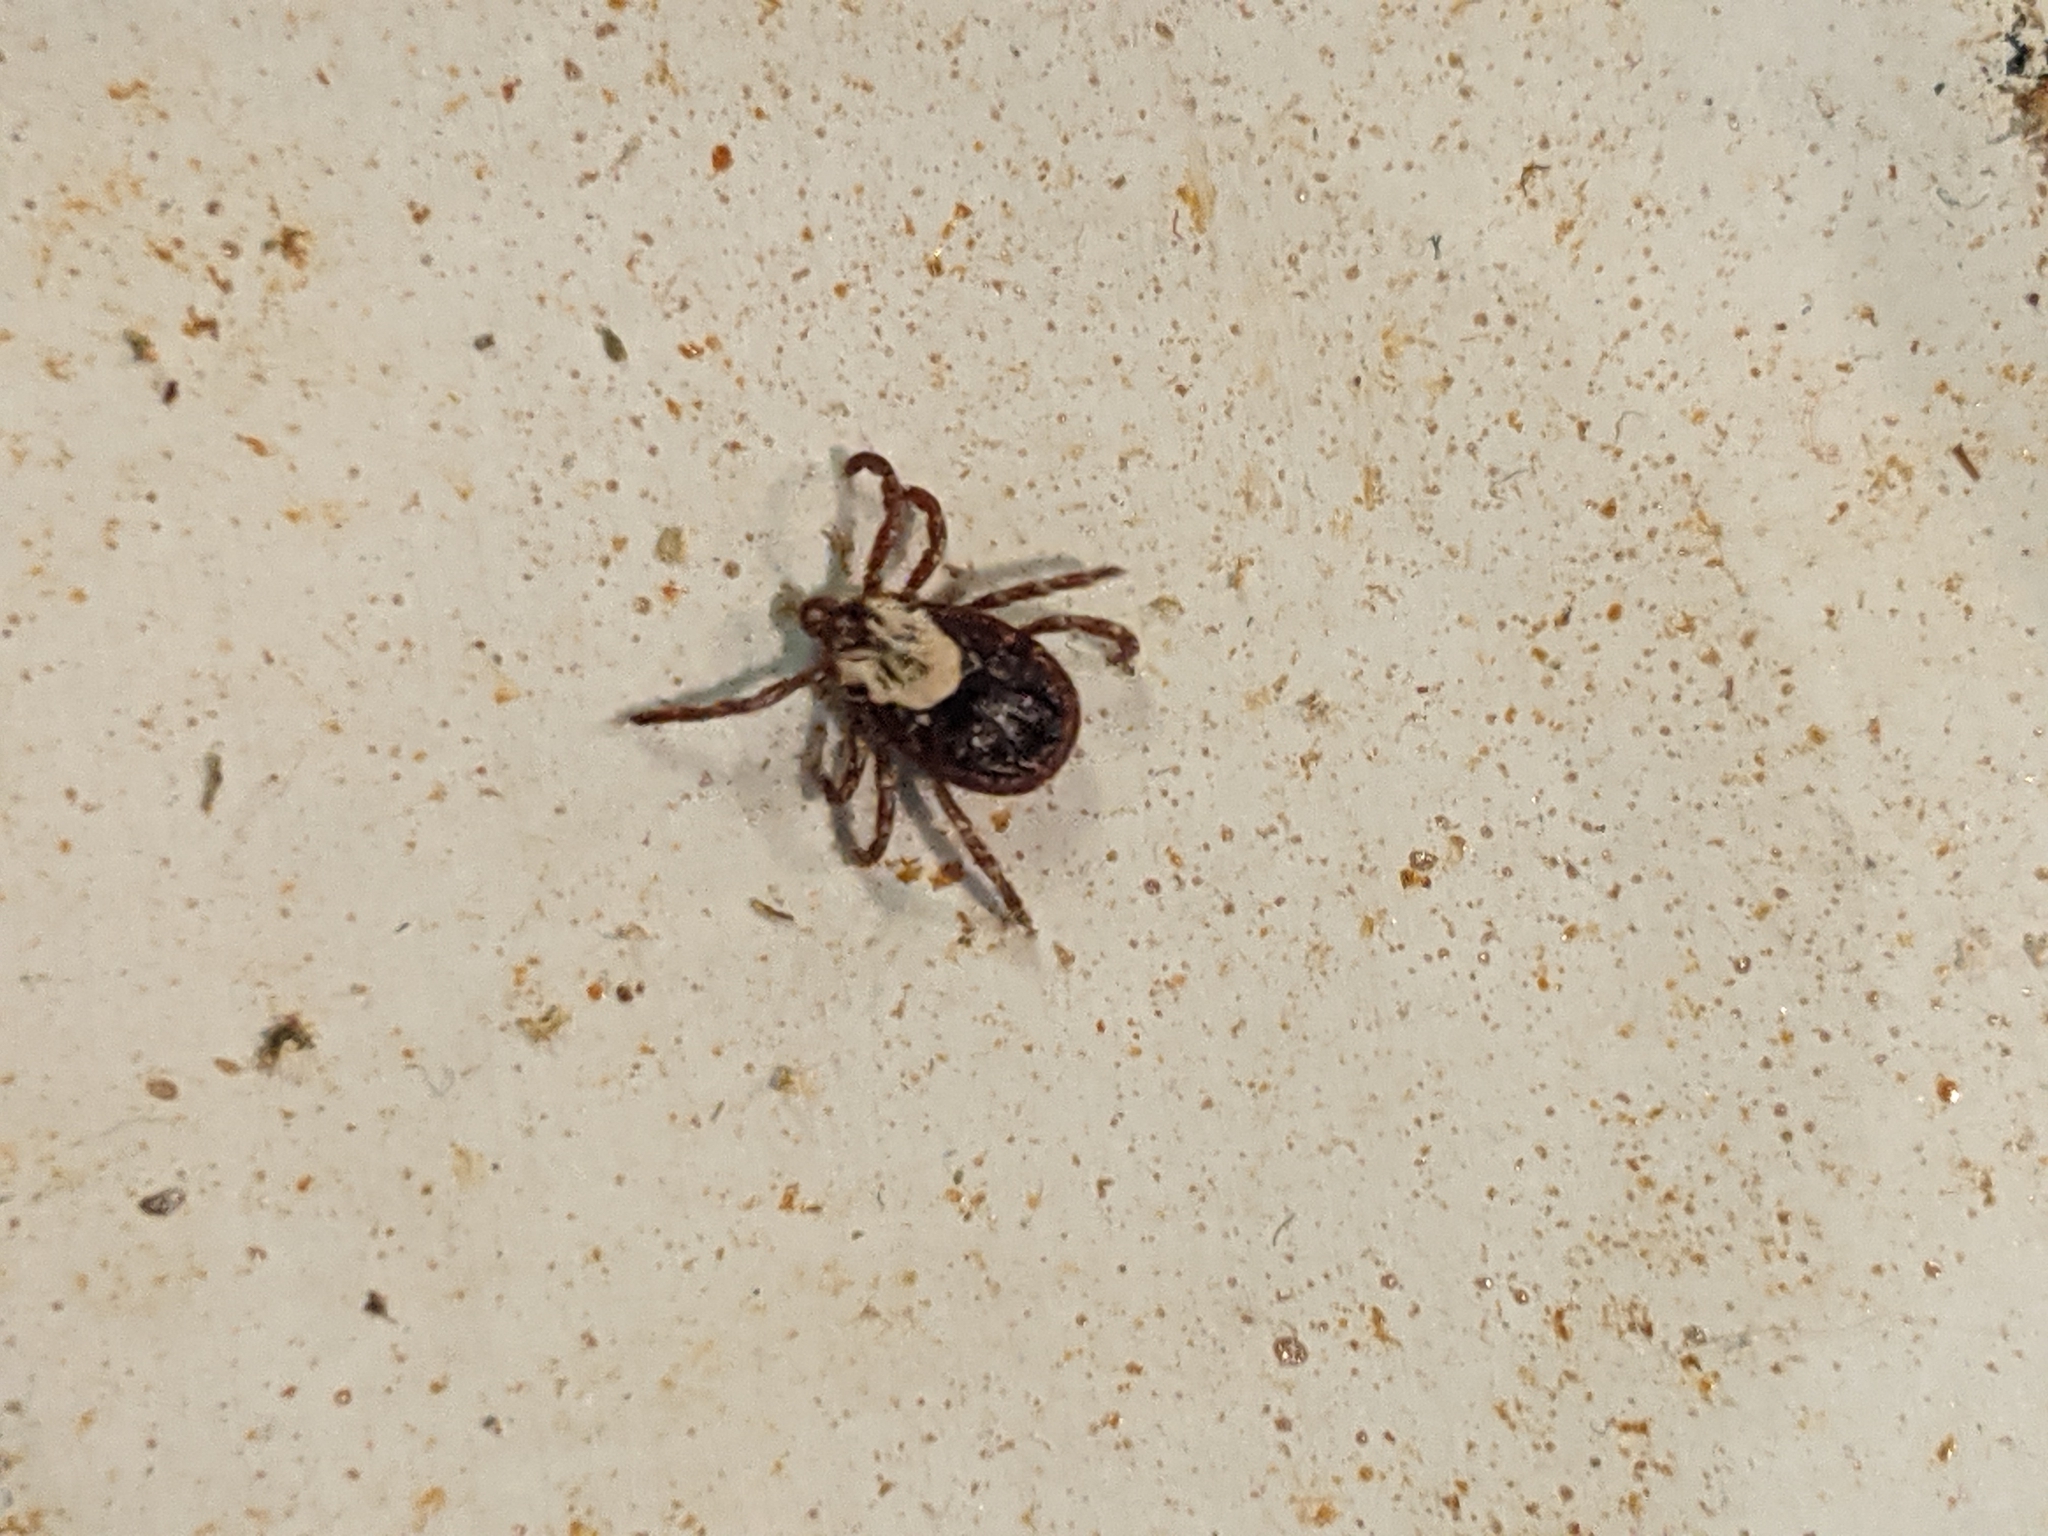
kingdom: Animalia
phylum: Arthropoda
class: Arachnida
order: Ixodida
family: Ixodidae
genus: Dermacentor
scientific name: Dermacentor variabilis
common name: American dog tick
